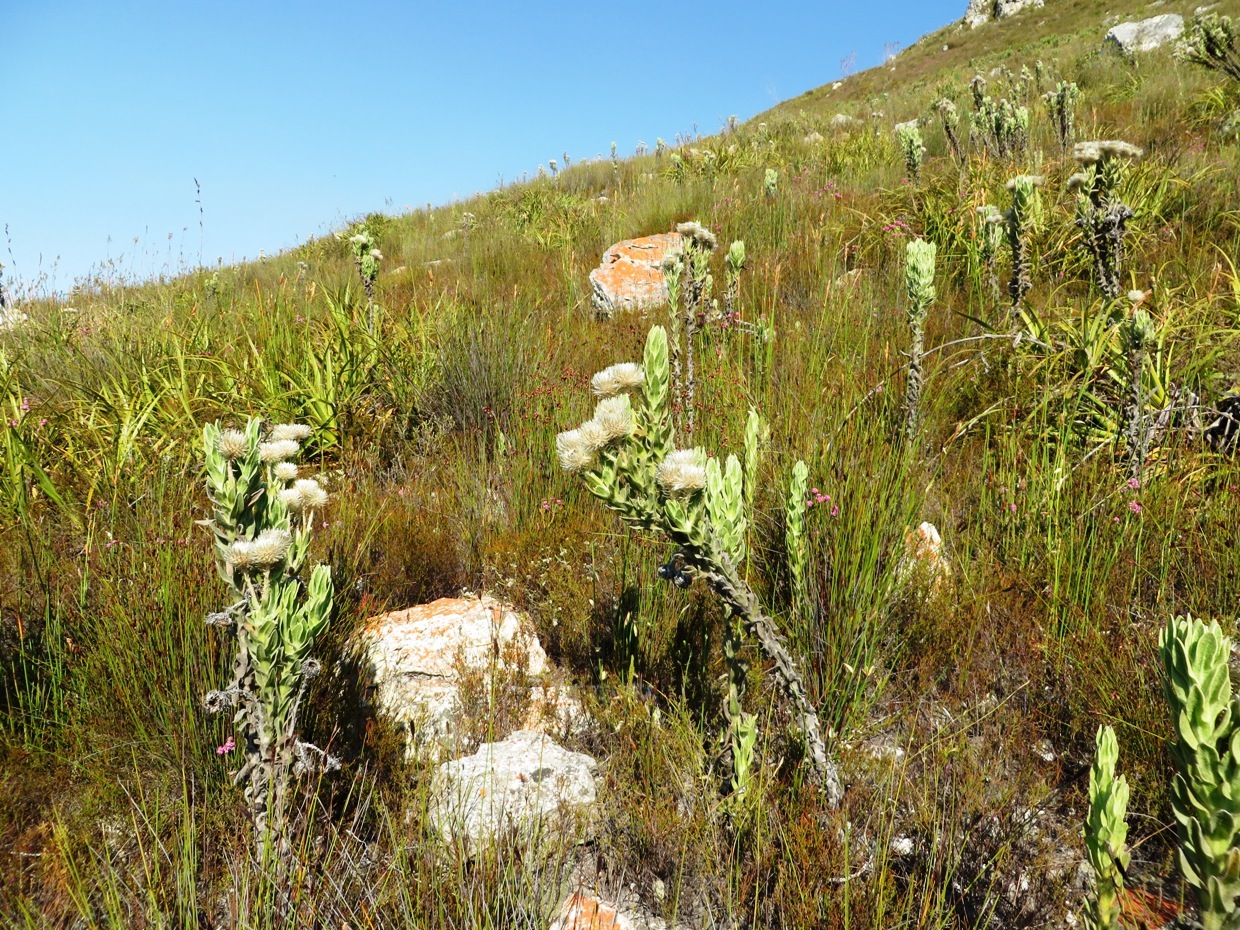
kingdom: Plantae
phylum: Tracheophyta
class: Magnoliopsida
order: Asterales
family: Asteraceae
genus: Syncarpha
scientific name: Syncarpha vestita
